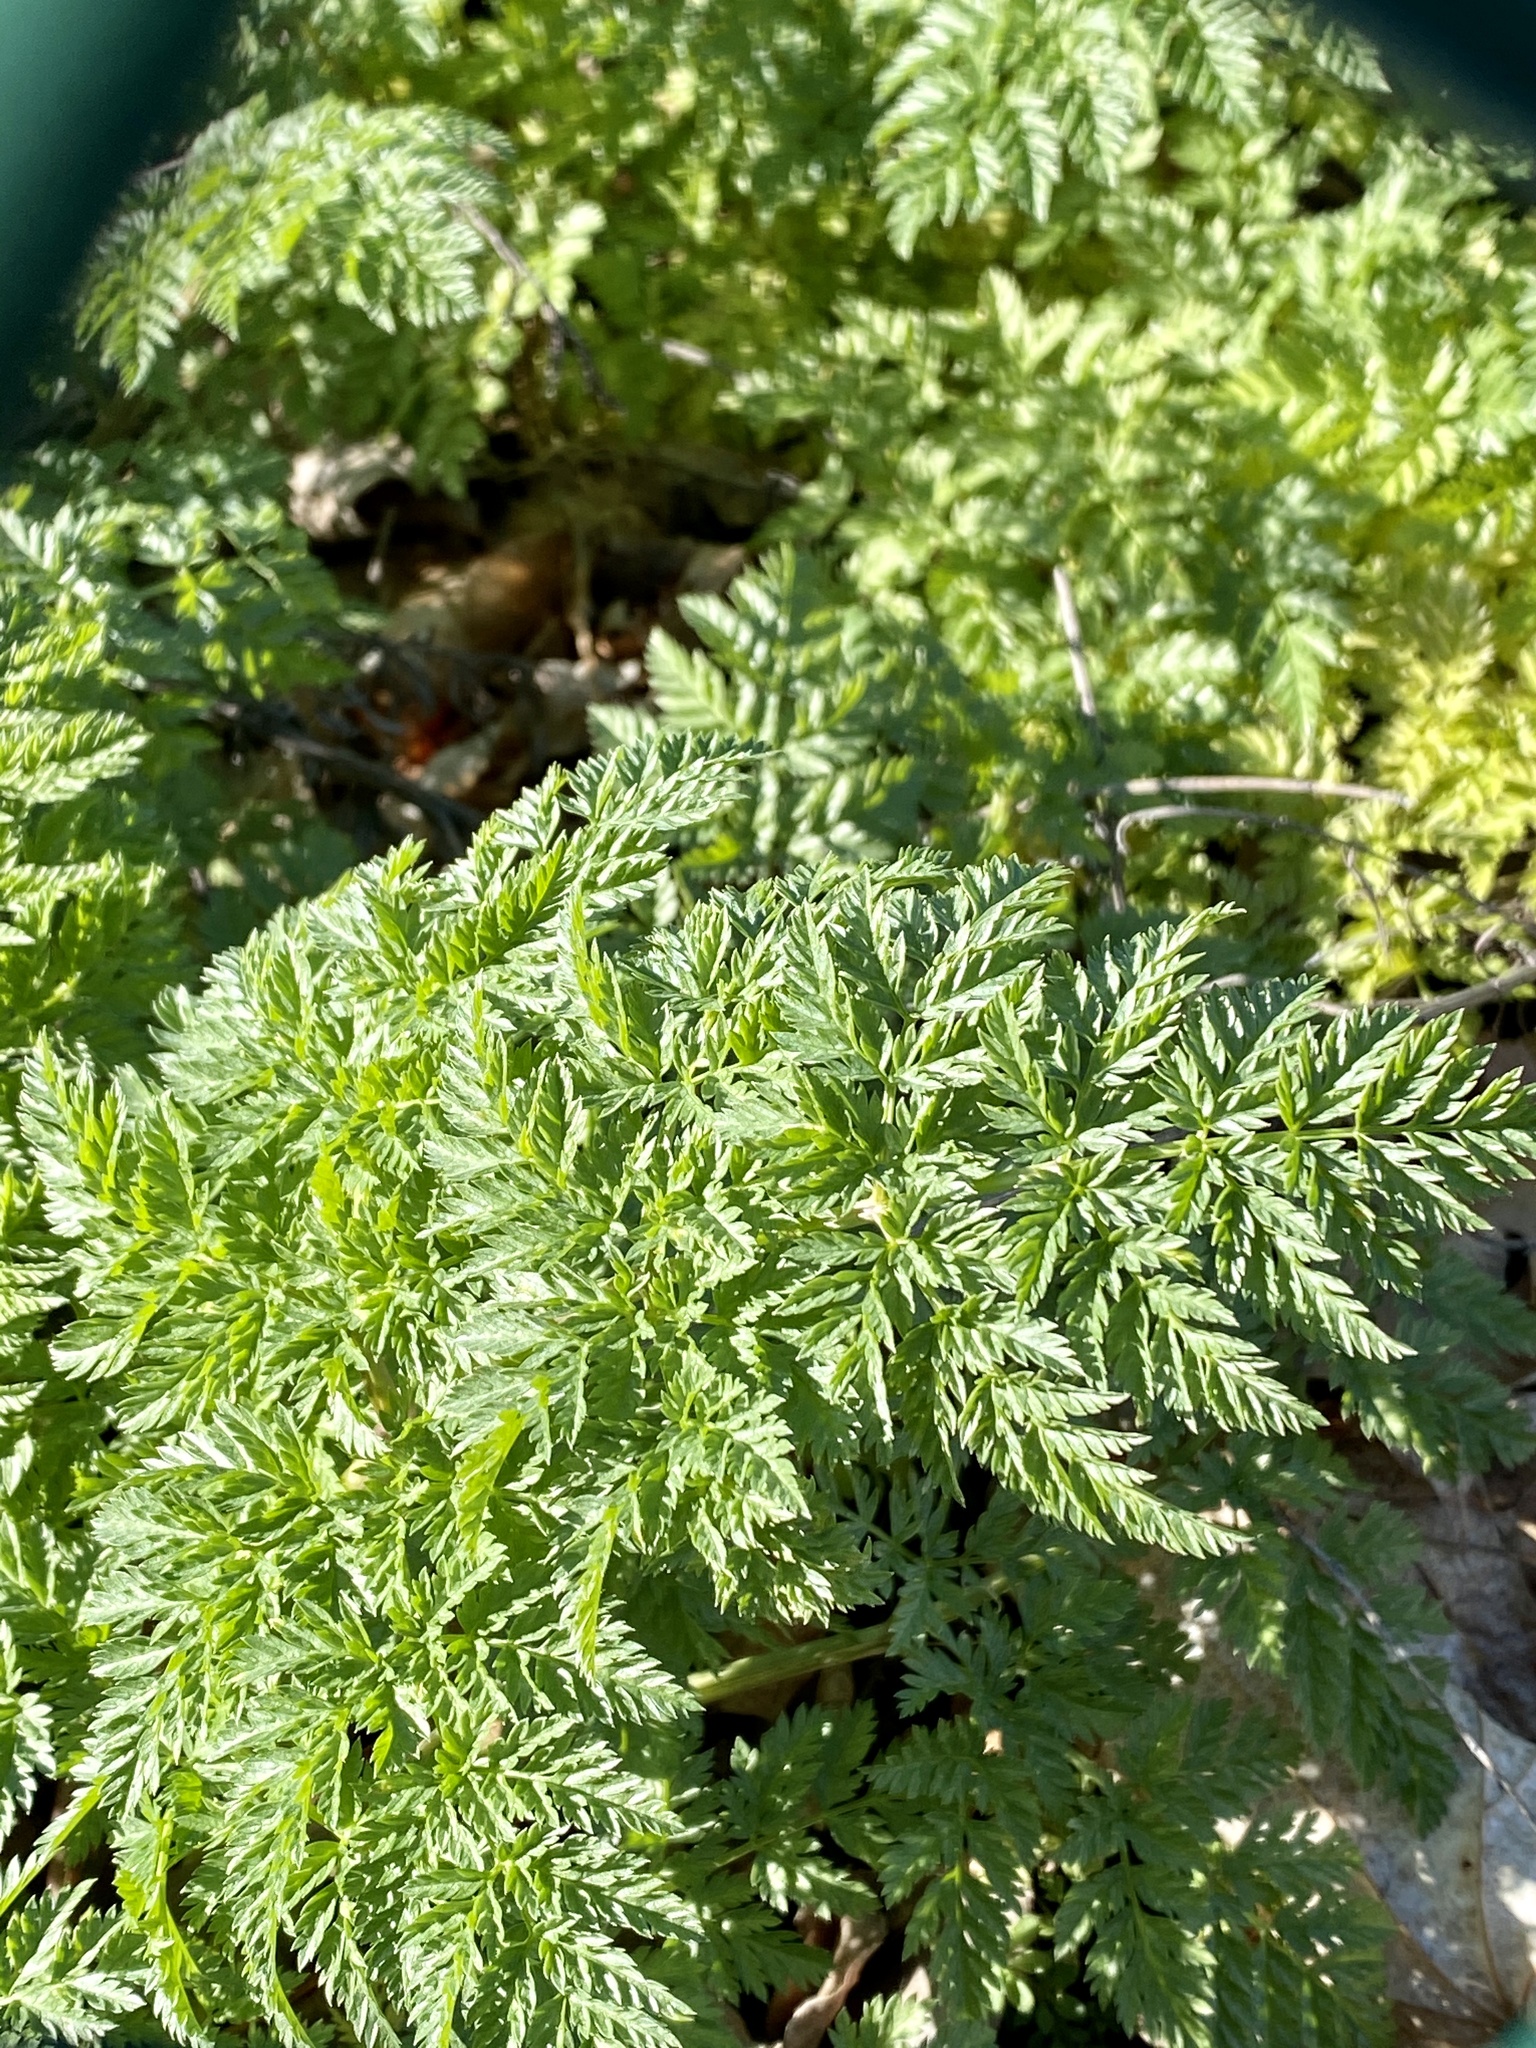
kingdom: Plantae
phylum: Tracheophyta
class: Magnoliopsida
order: Apiales
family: Apiaceae
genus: Conium
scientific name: Conium maculatum
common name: Hemlock
